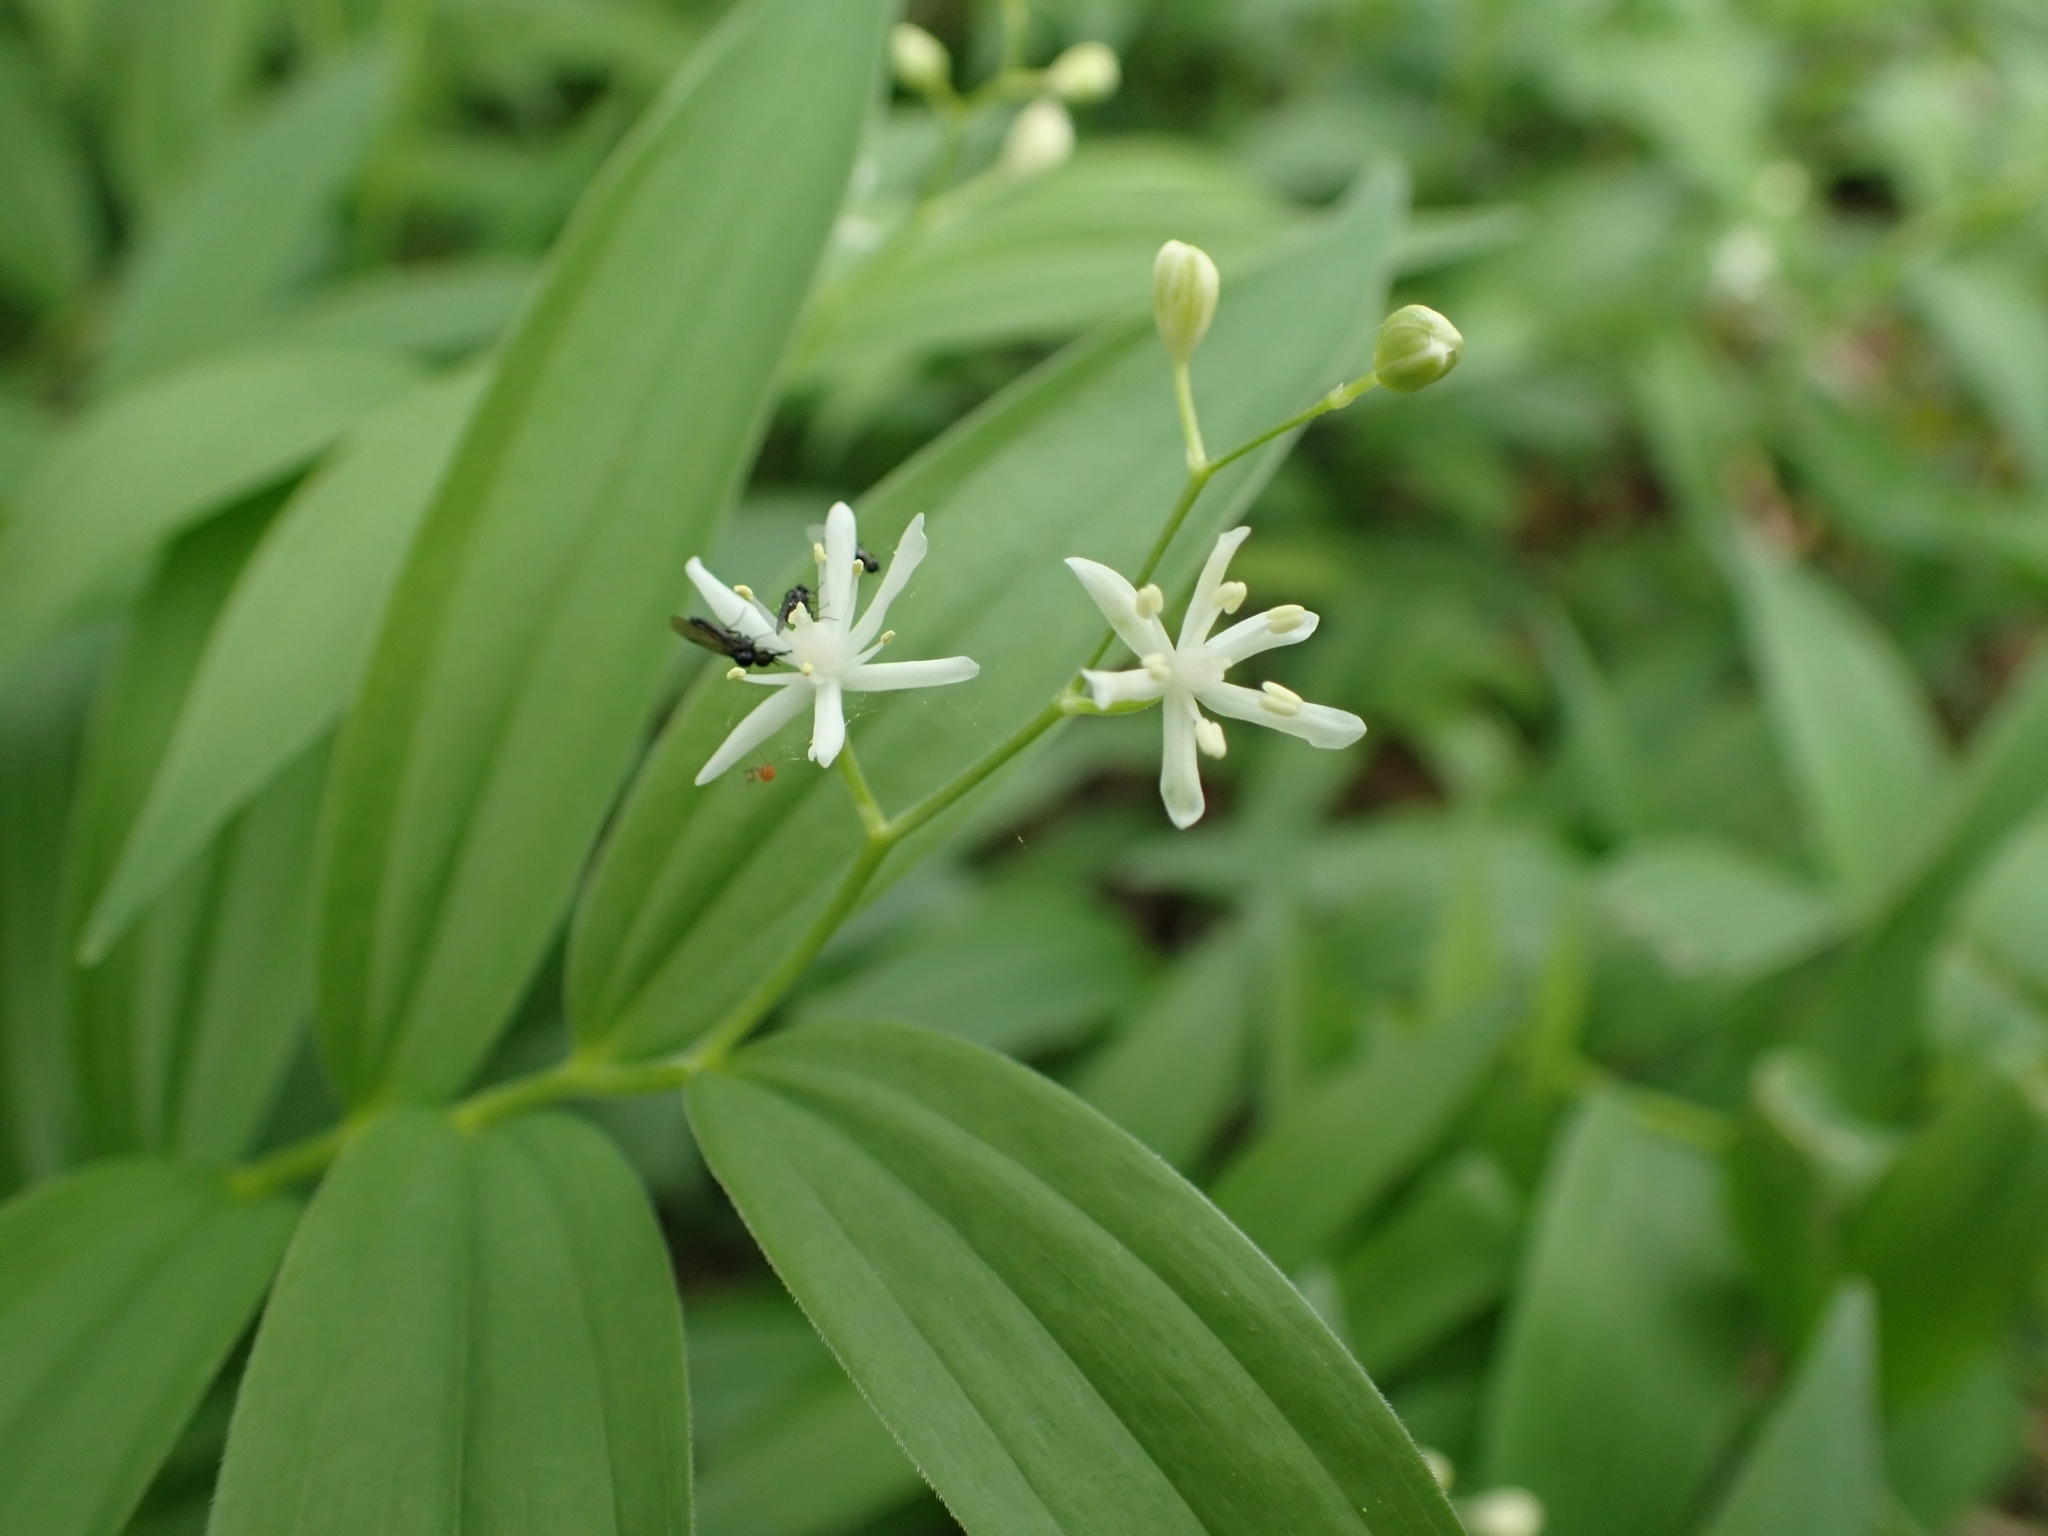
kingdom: Plantae
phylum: Tracheophyta
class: Liliopsida
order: Asparagales
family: Asparagaceae
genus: Maianthemum
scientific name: Maianthemum stellatum
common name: Little false solomon's seal
